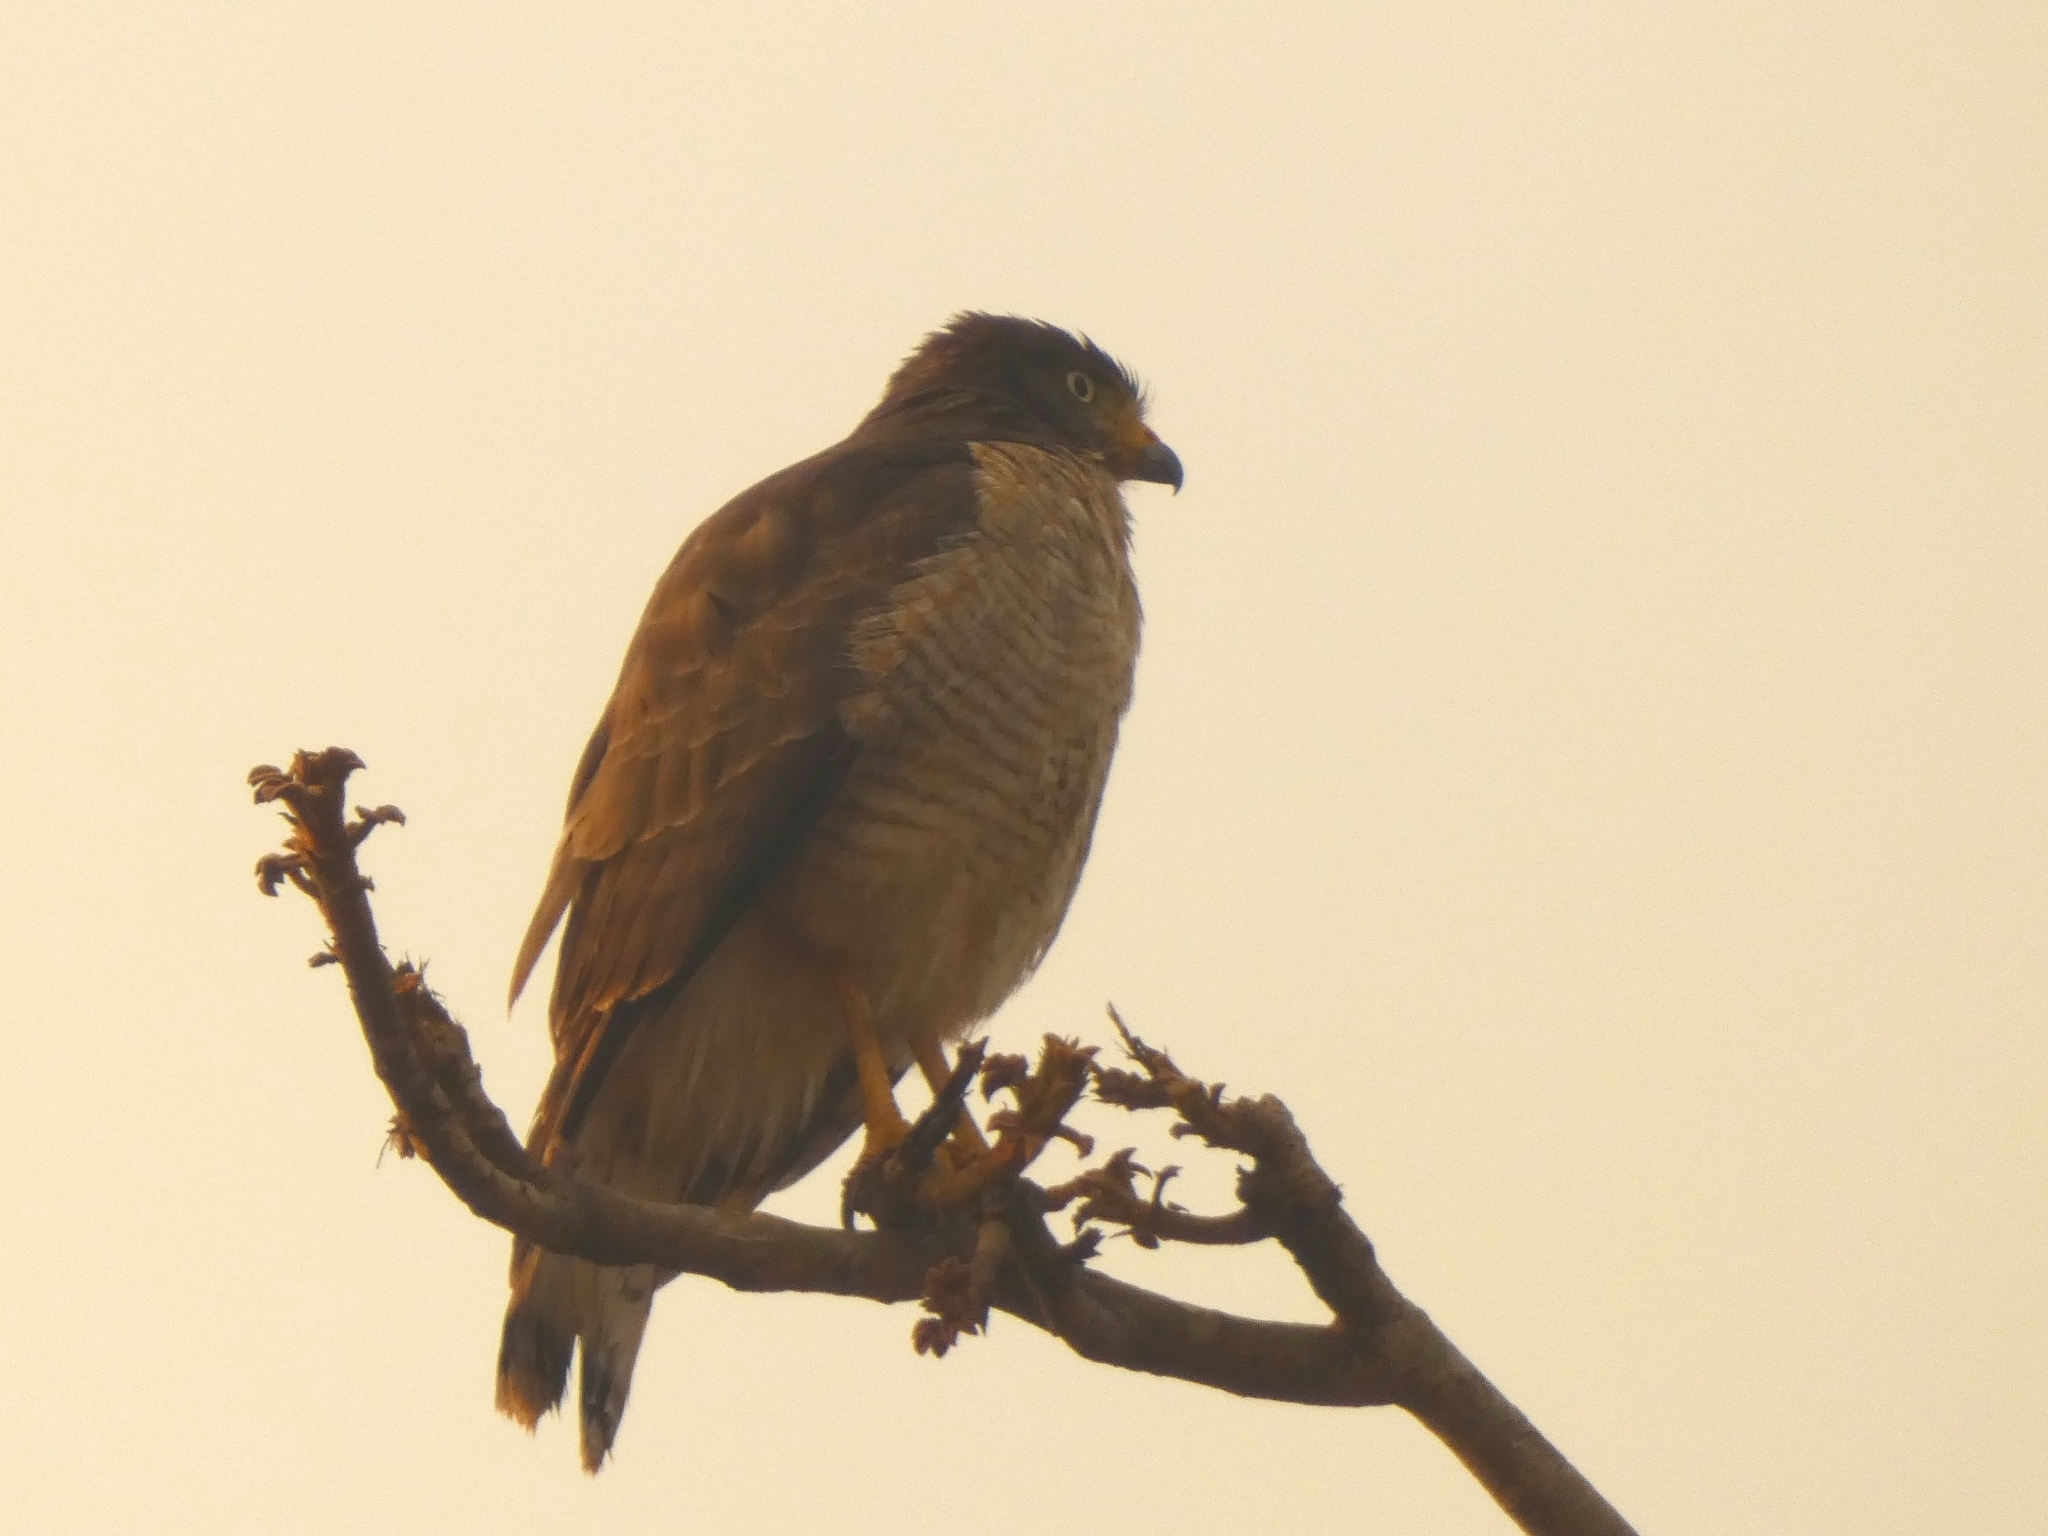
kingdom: Animalia
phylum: Chordata
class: Aves
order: Accipitriformes
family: Accipitridae
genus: Rupornis
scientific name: Rupornis magnirostris
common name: Roadside hawk
